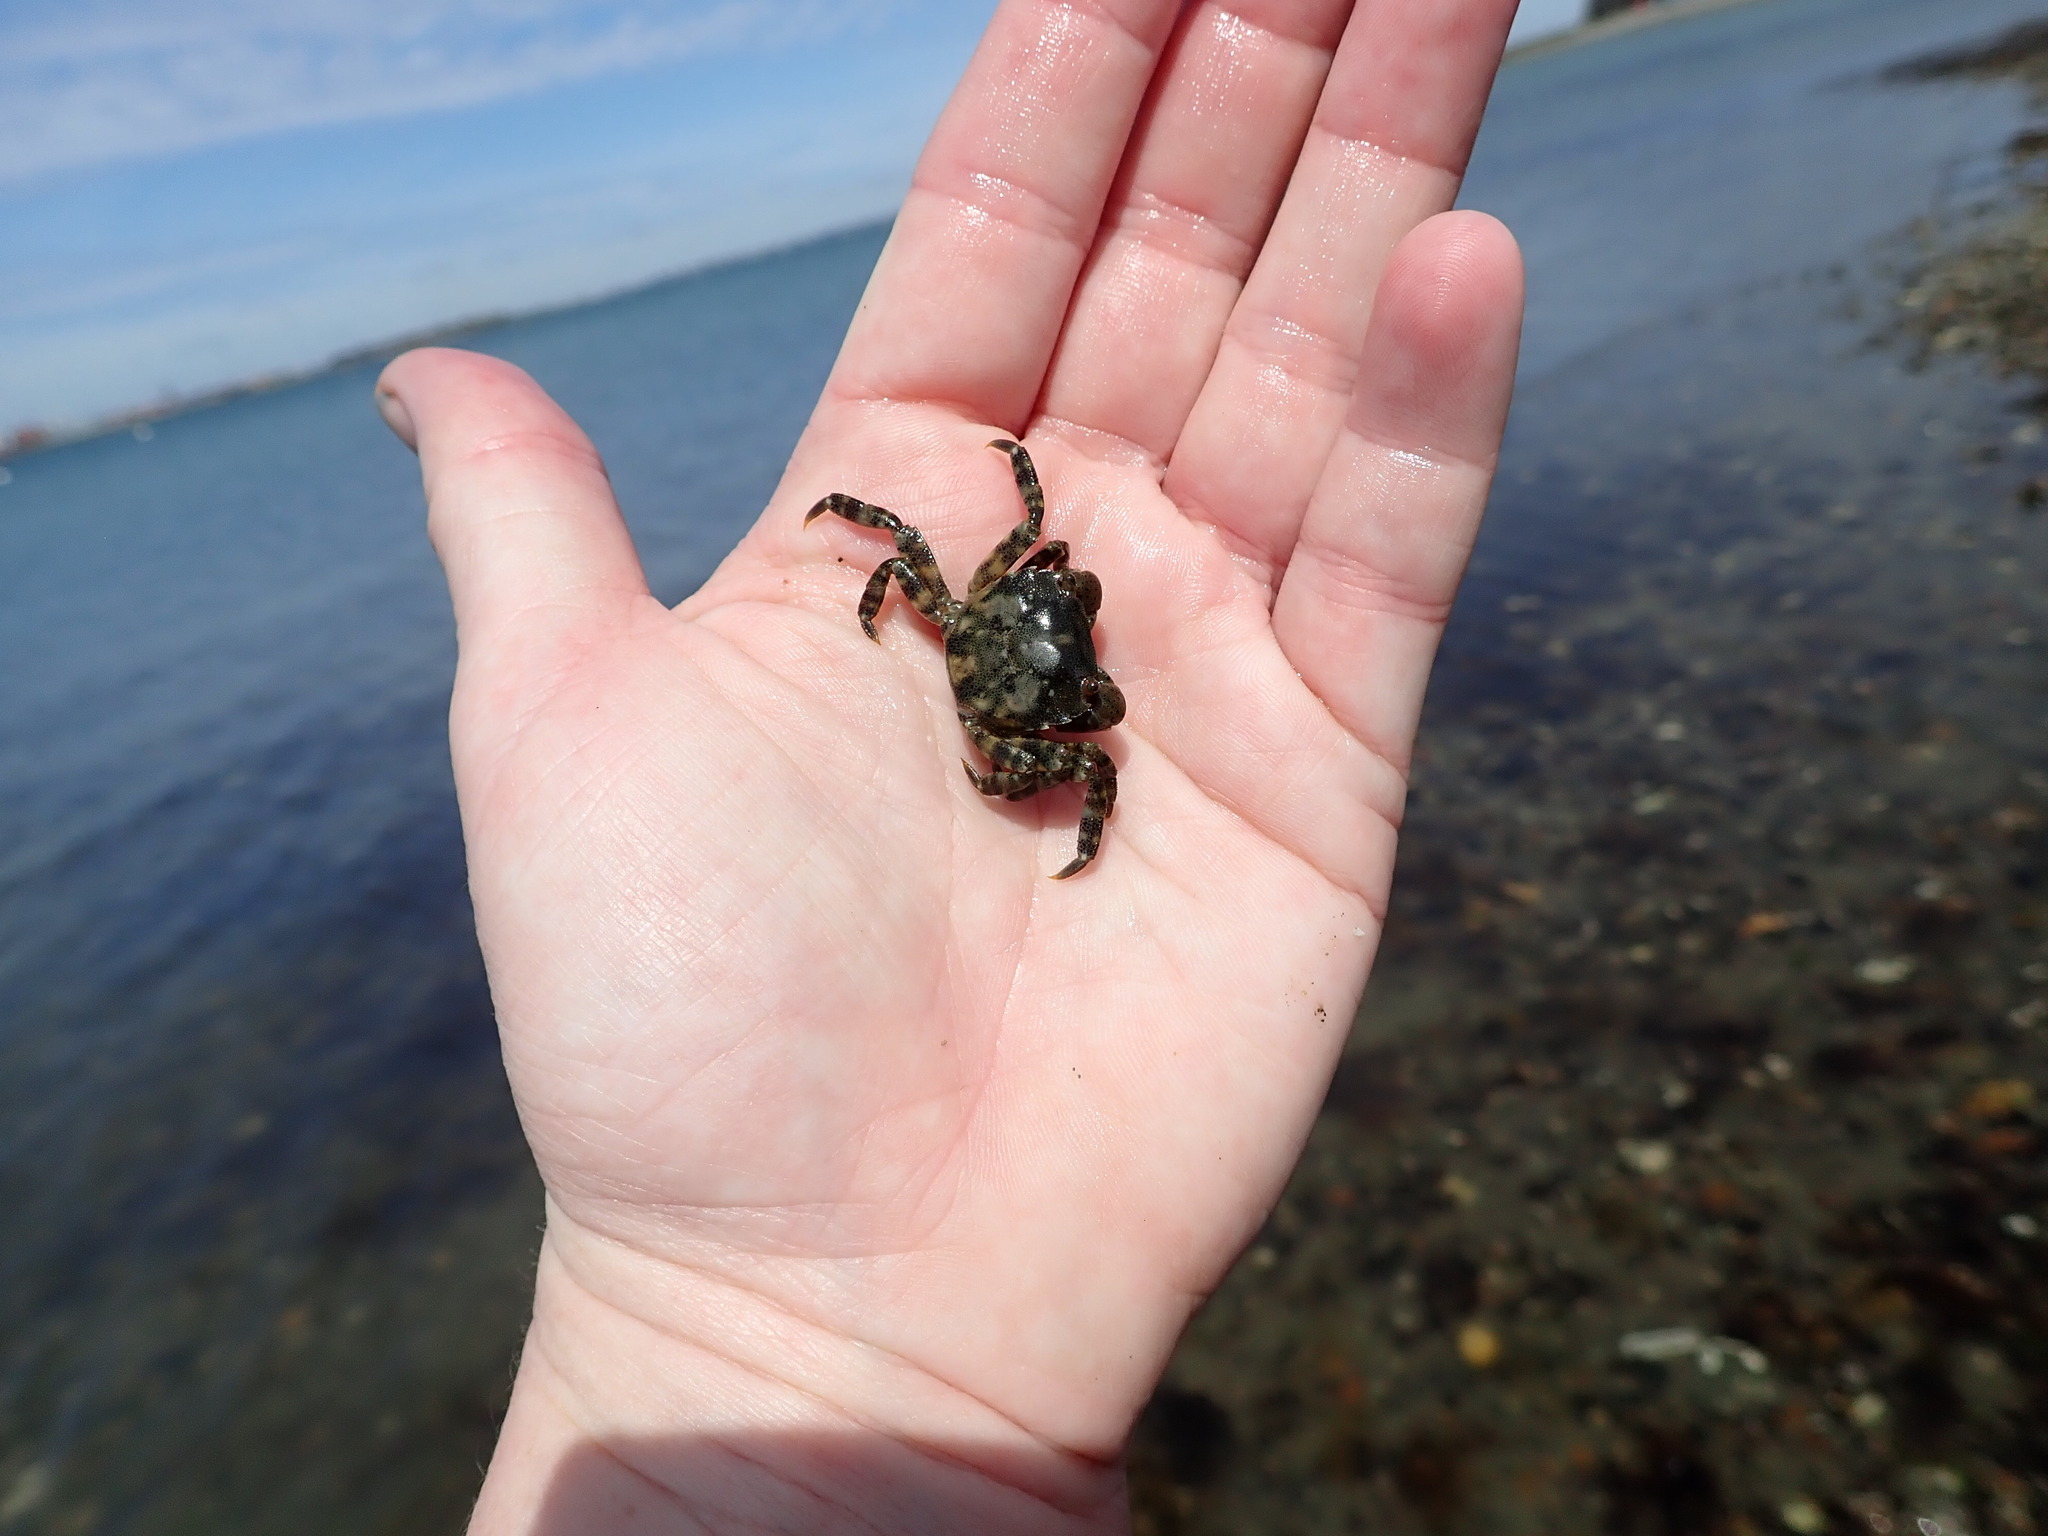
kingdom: Animalia
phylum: Arthropoda
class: Malacostraca
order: Decapoda
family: Varunidae
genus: Hemigrapsus
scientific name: Hemigrapsus sanguineus
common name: Asian shore crab
